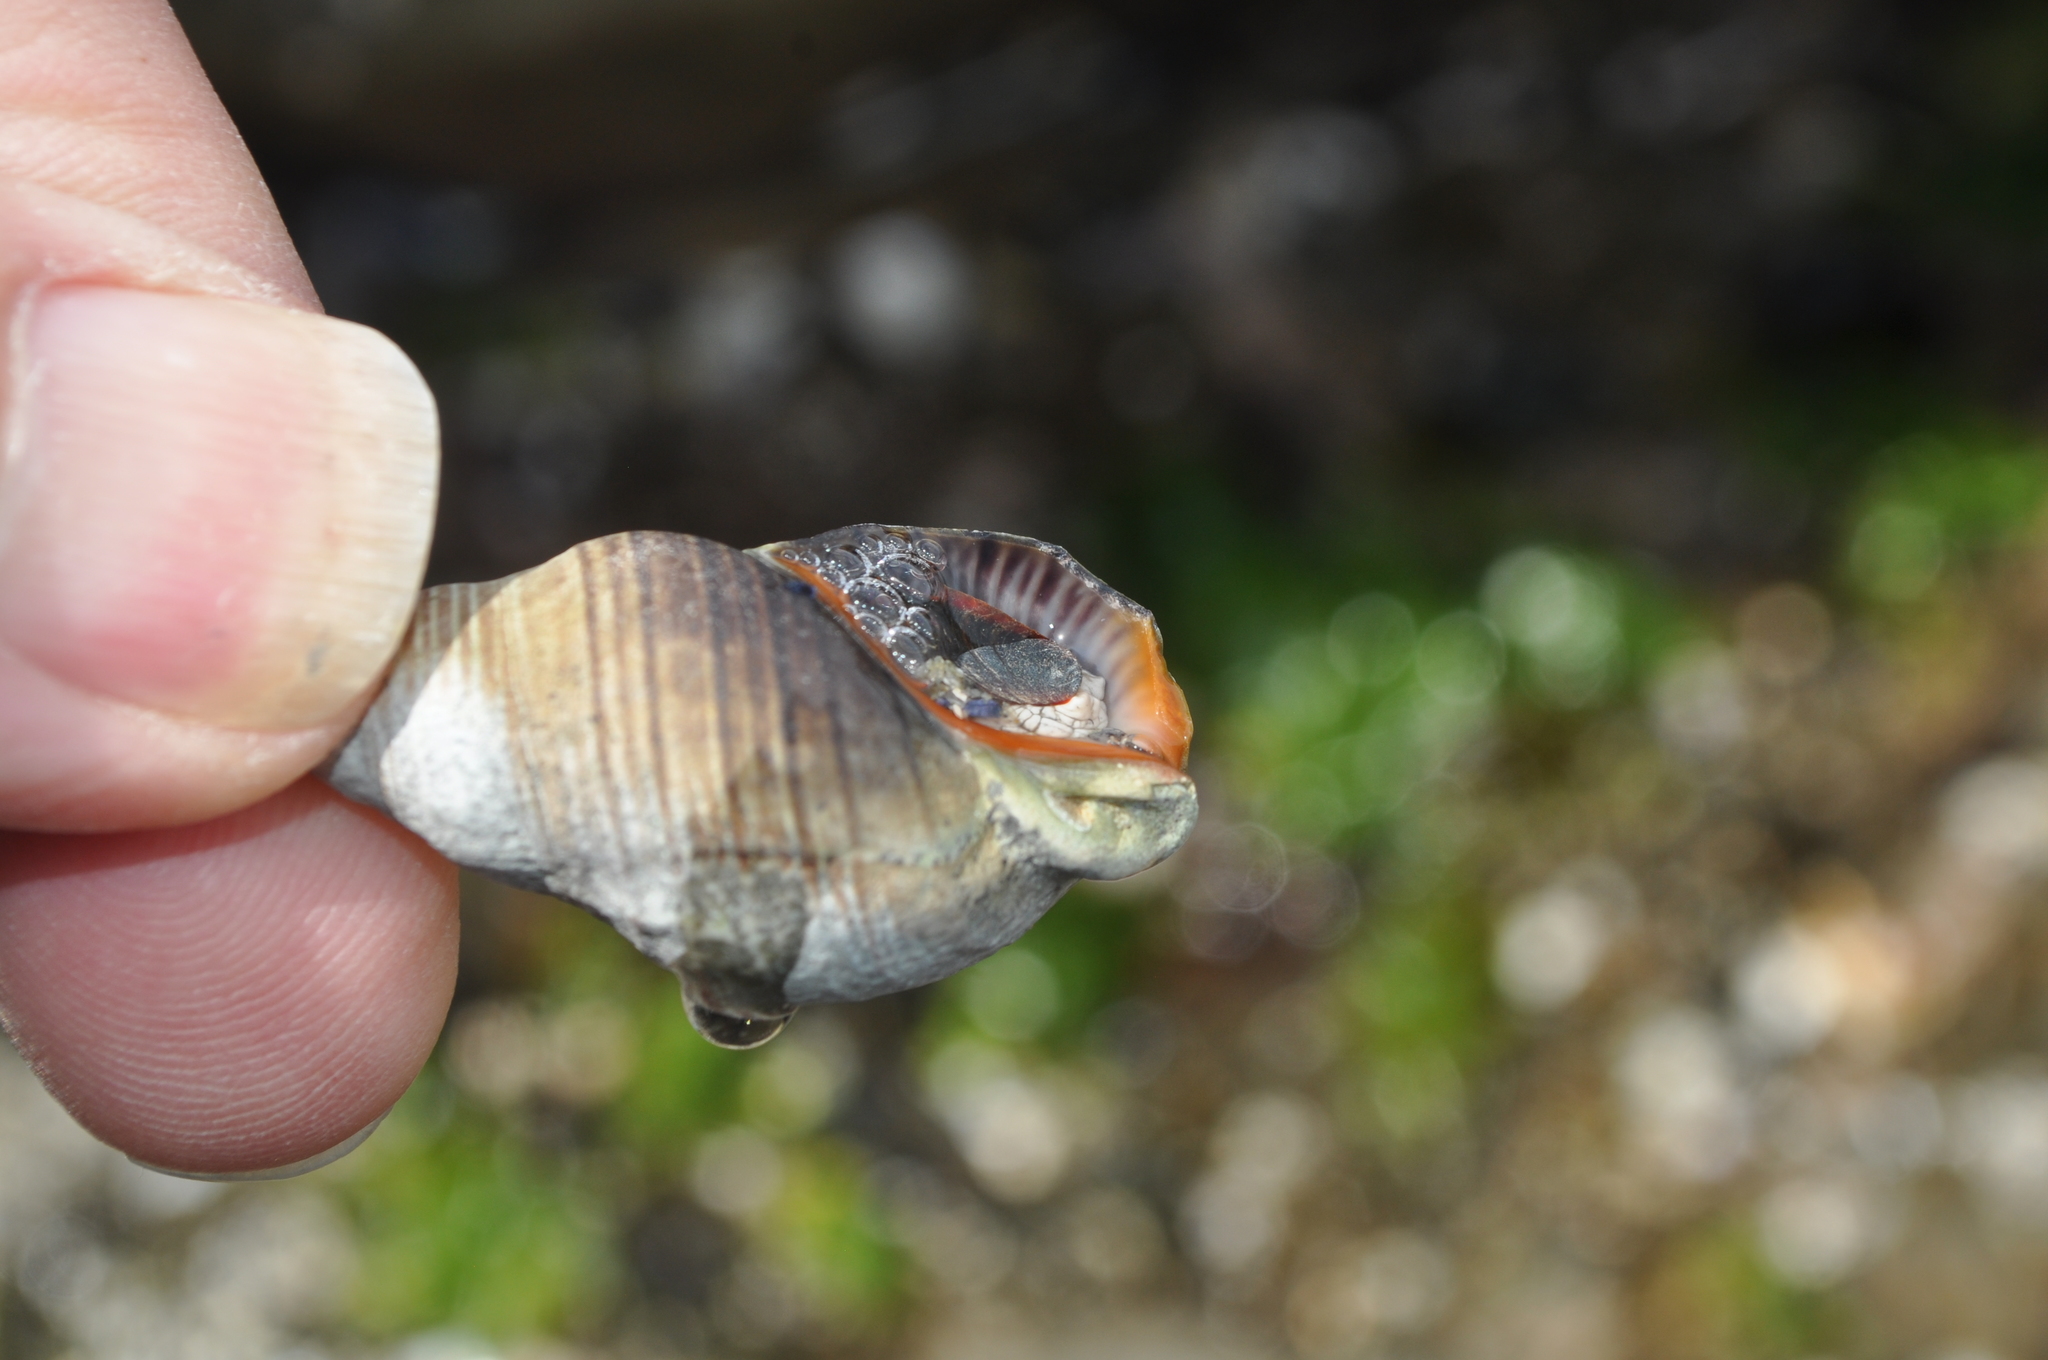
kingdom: Animalia
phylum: Mollusca
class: Gastropoda
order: Neogastropoda
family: Cominellidae
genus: Cominella
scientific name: Cominella virgata
